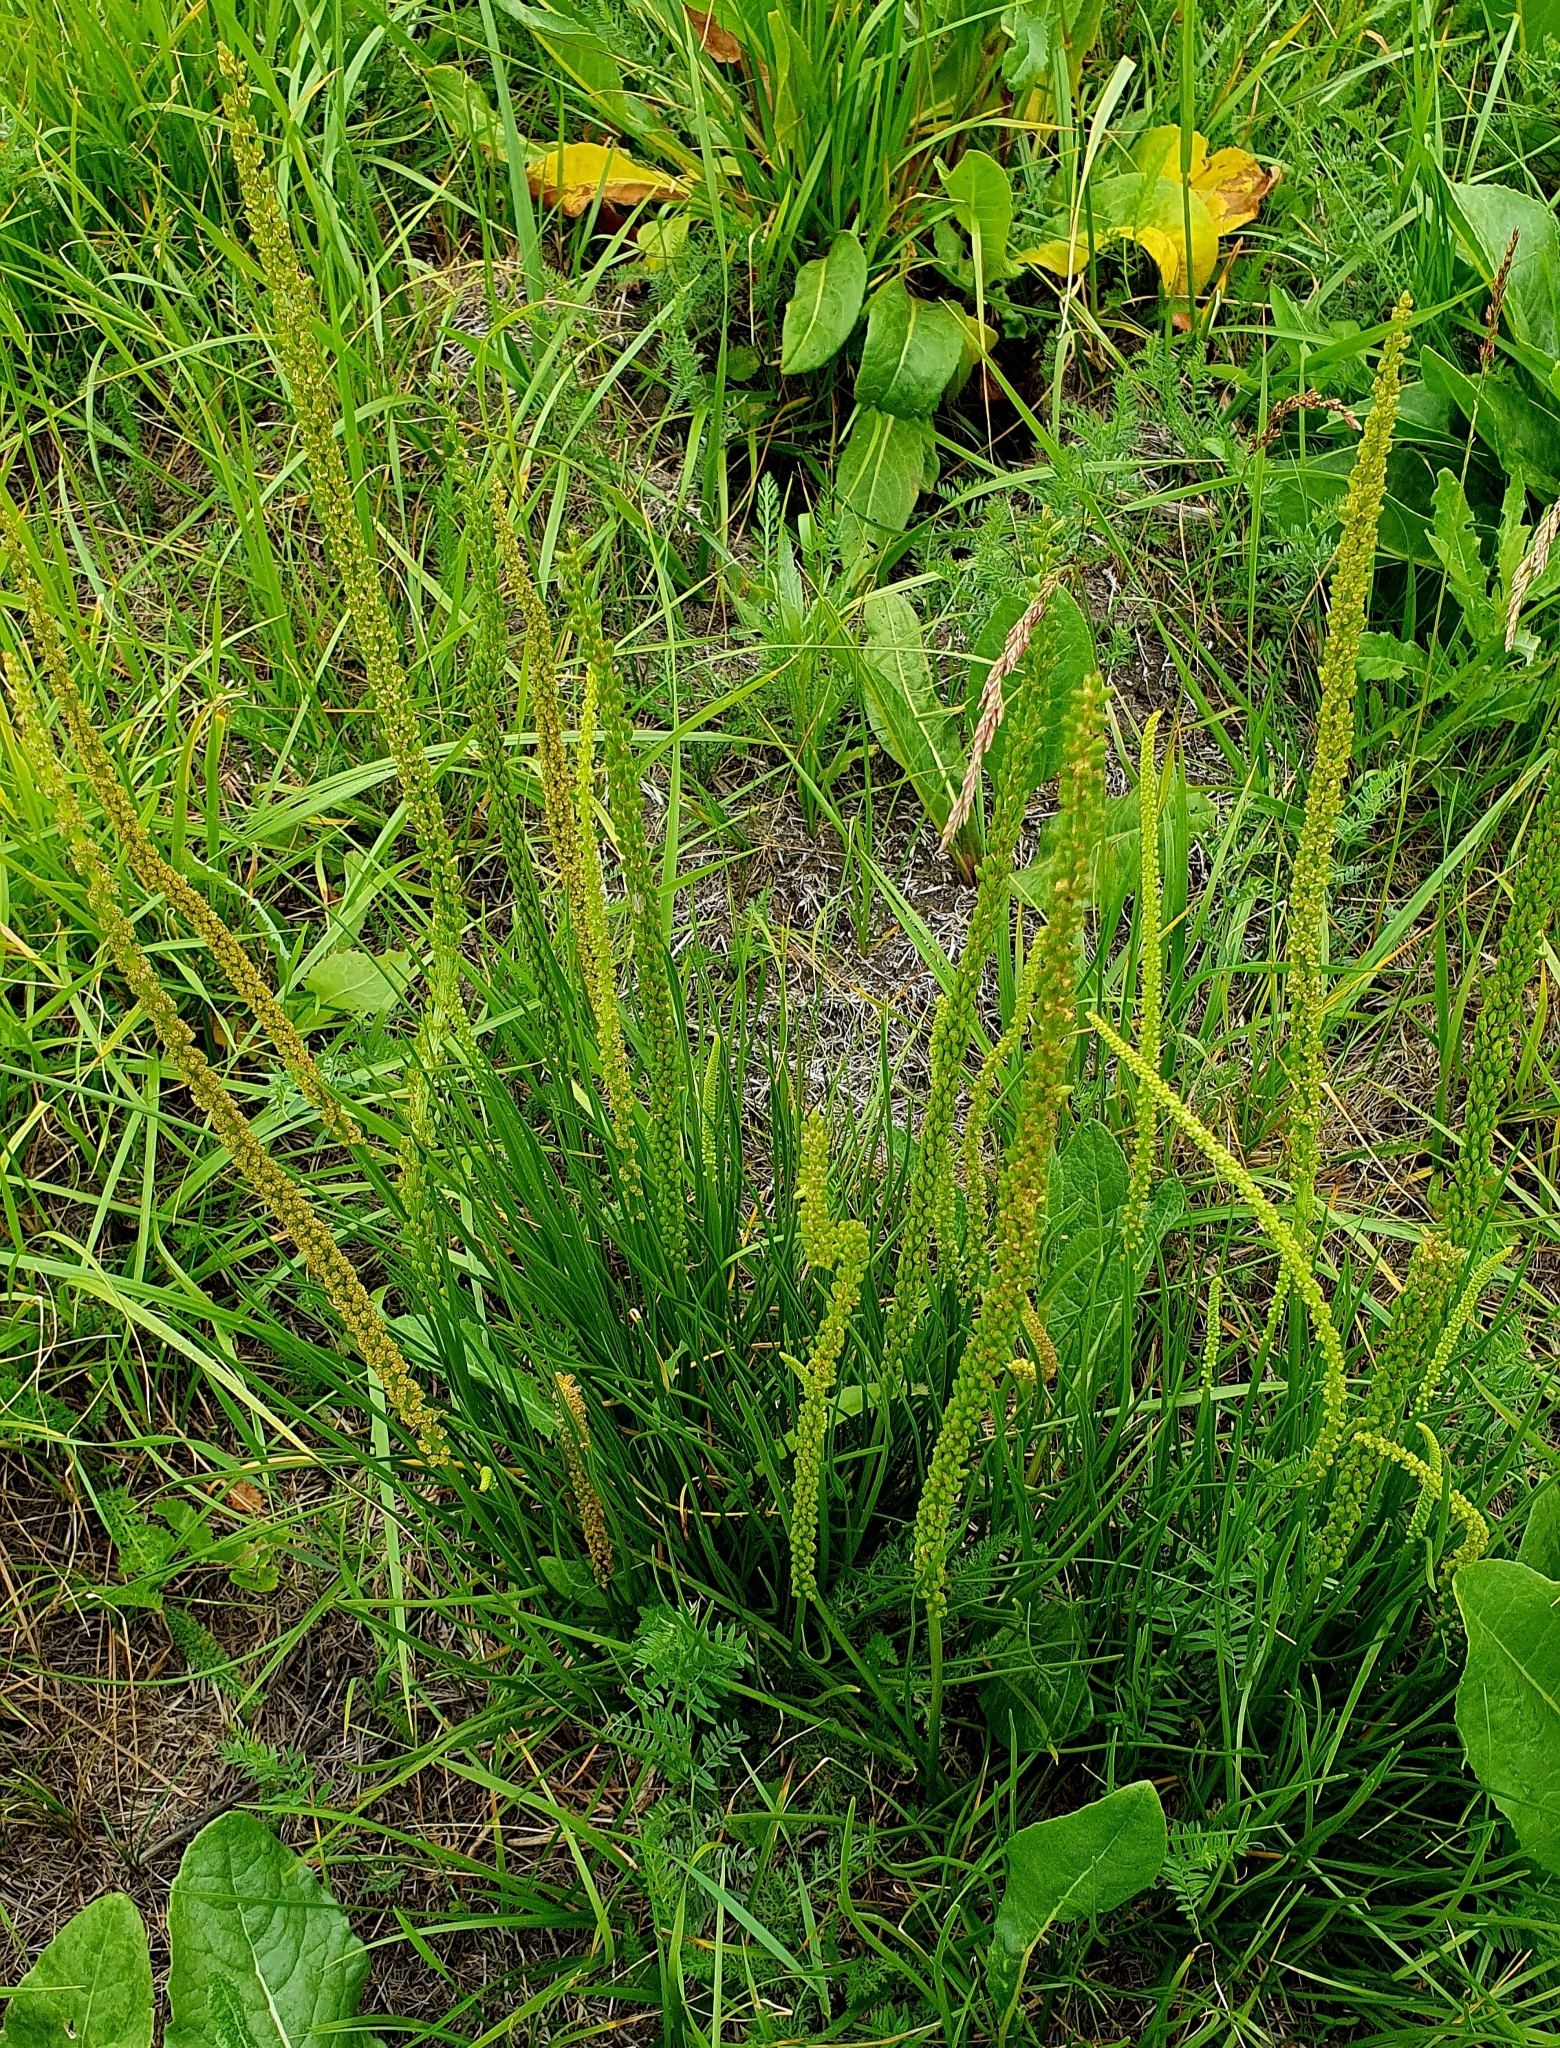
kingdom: Plantae
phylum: Tracheophyta
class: Liliopsida
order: Alismatales
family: Juncaginaceae
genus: Triglochin
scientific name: Triglochin maritima
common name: Sea arrowgrass
